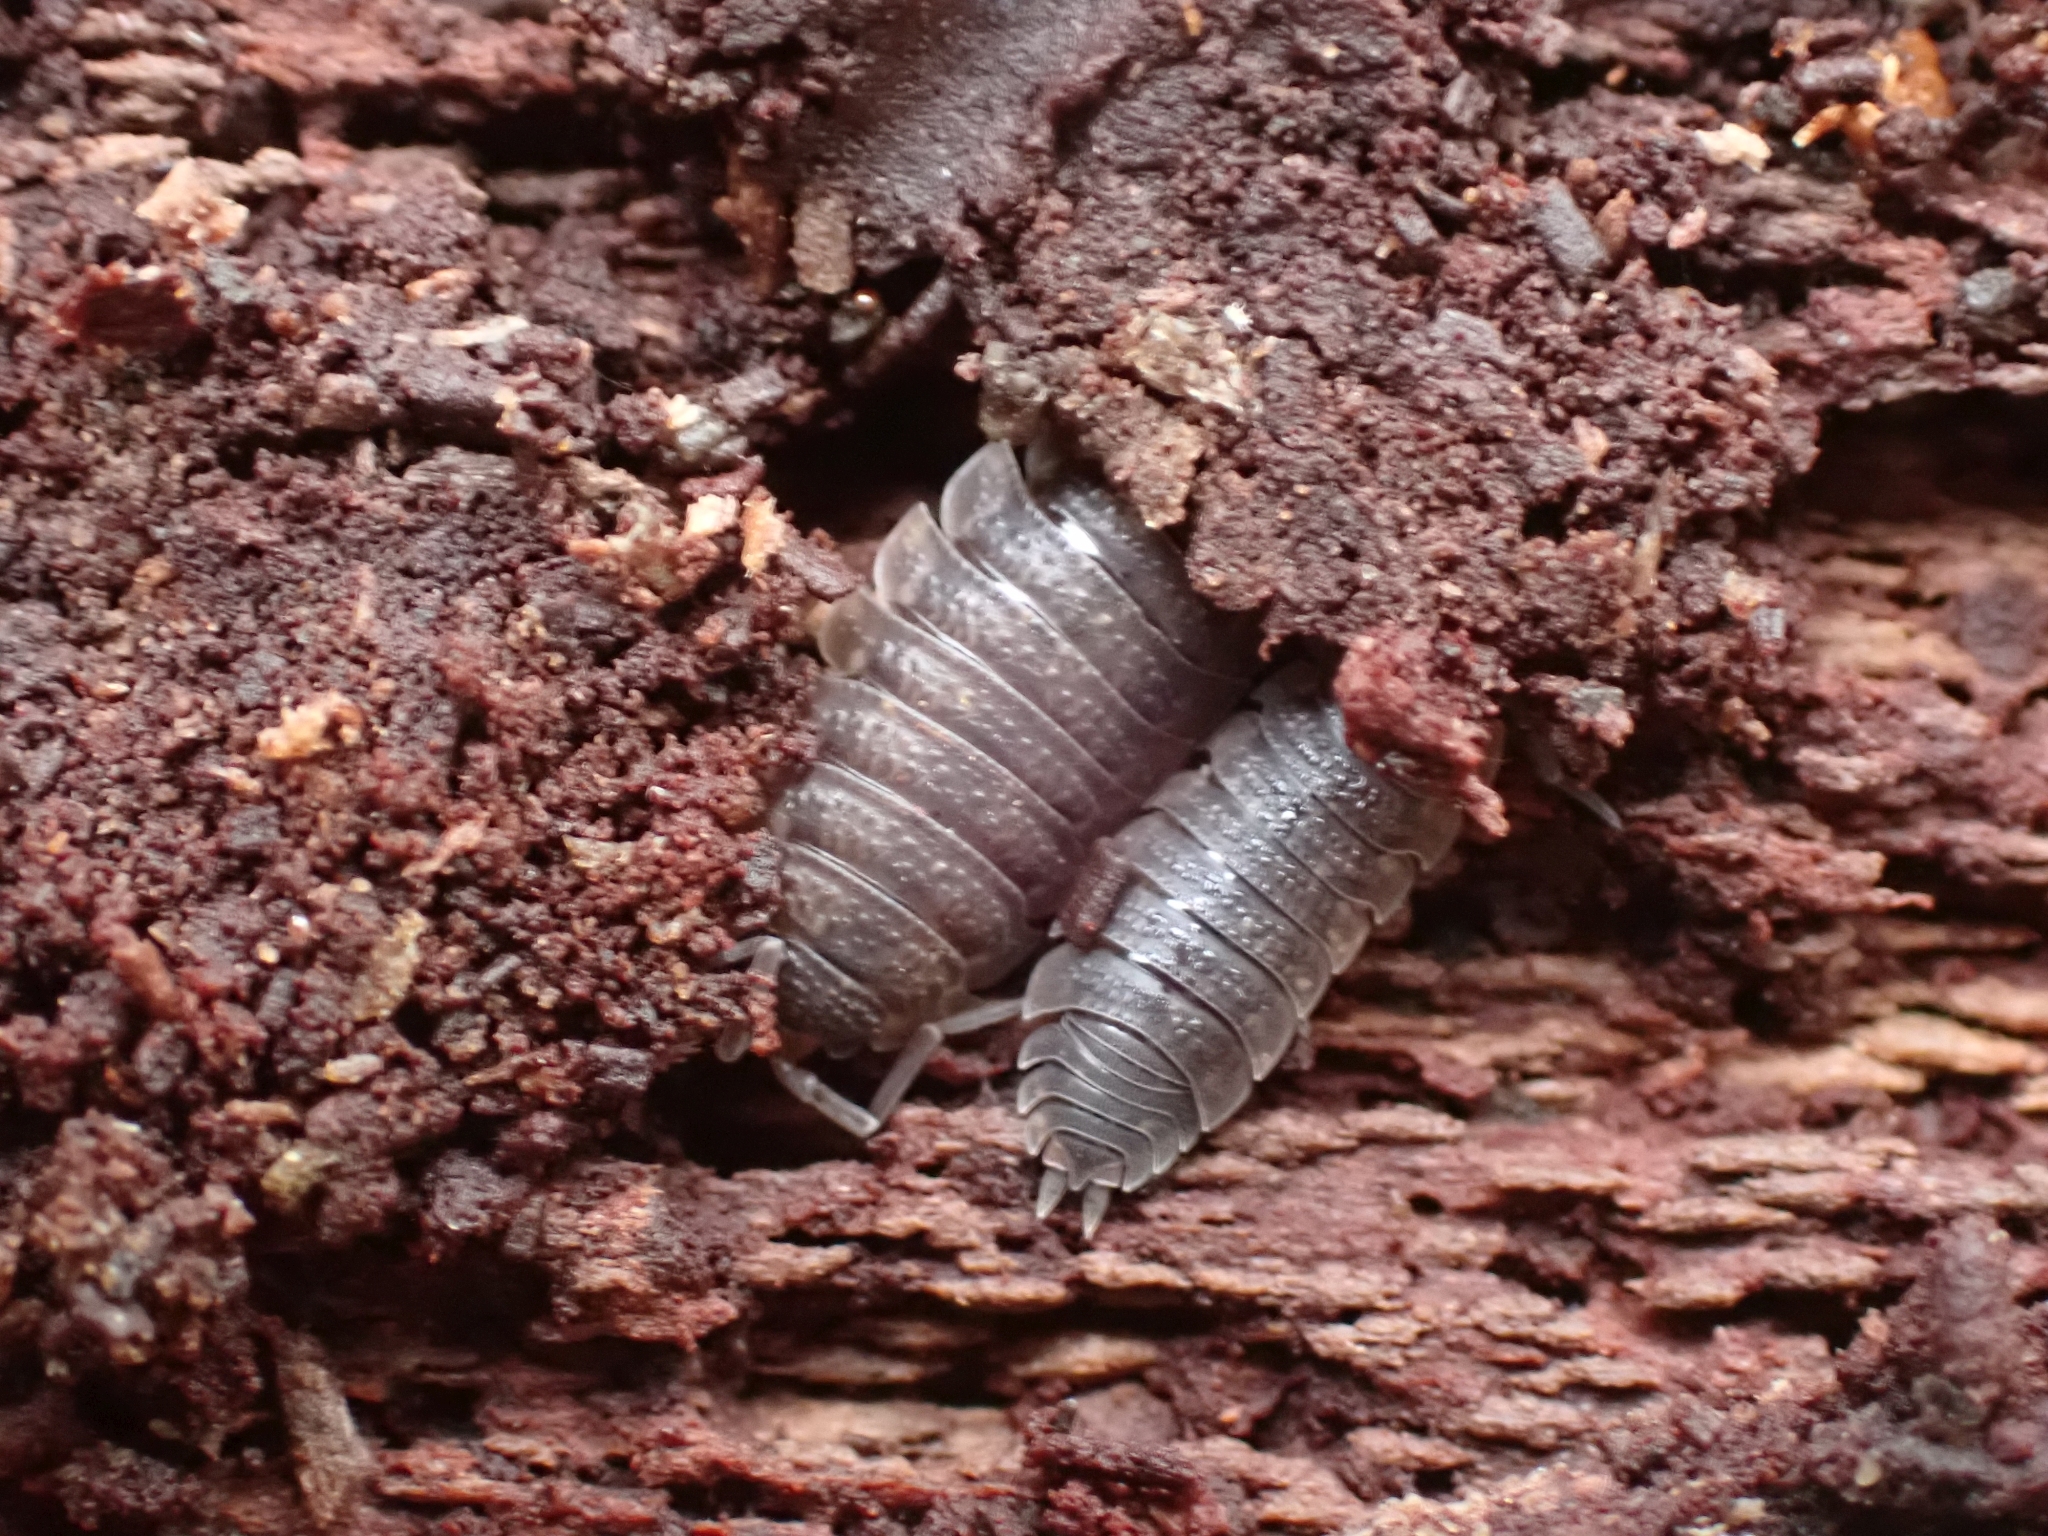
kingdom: Animalia
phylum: Arthropoda
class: Malacostraca
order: Isopoda
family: Porcellionidae
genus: Porcellio
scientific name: Porcellio scaber
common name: Common rough woodlouse
